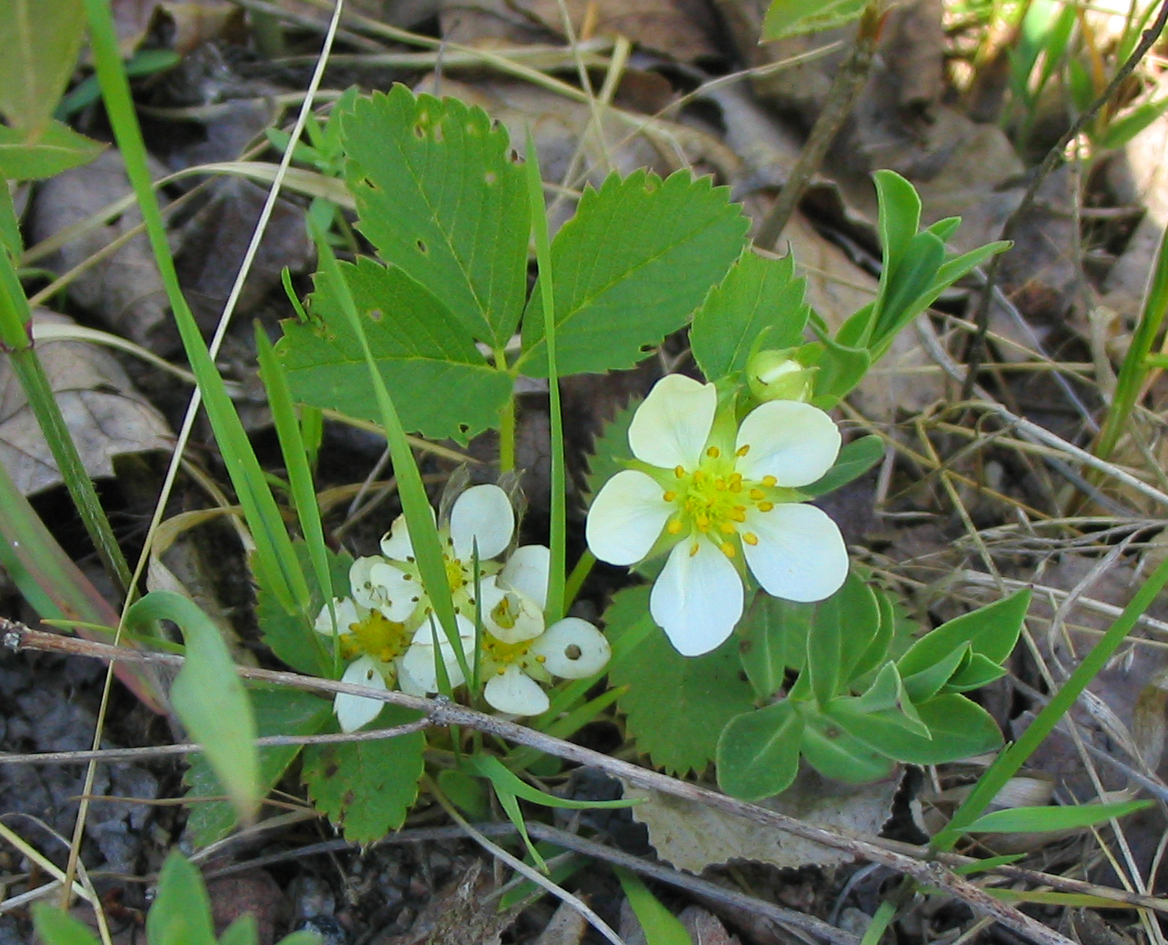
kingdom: Plantae
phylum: Tracheophyta
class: Magnoliopsida
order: Rosales
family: Rosaceae
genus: Fragaria
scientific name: Fragaria virginiana
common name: Thickleaved wild strawberry
